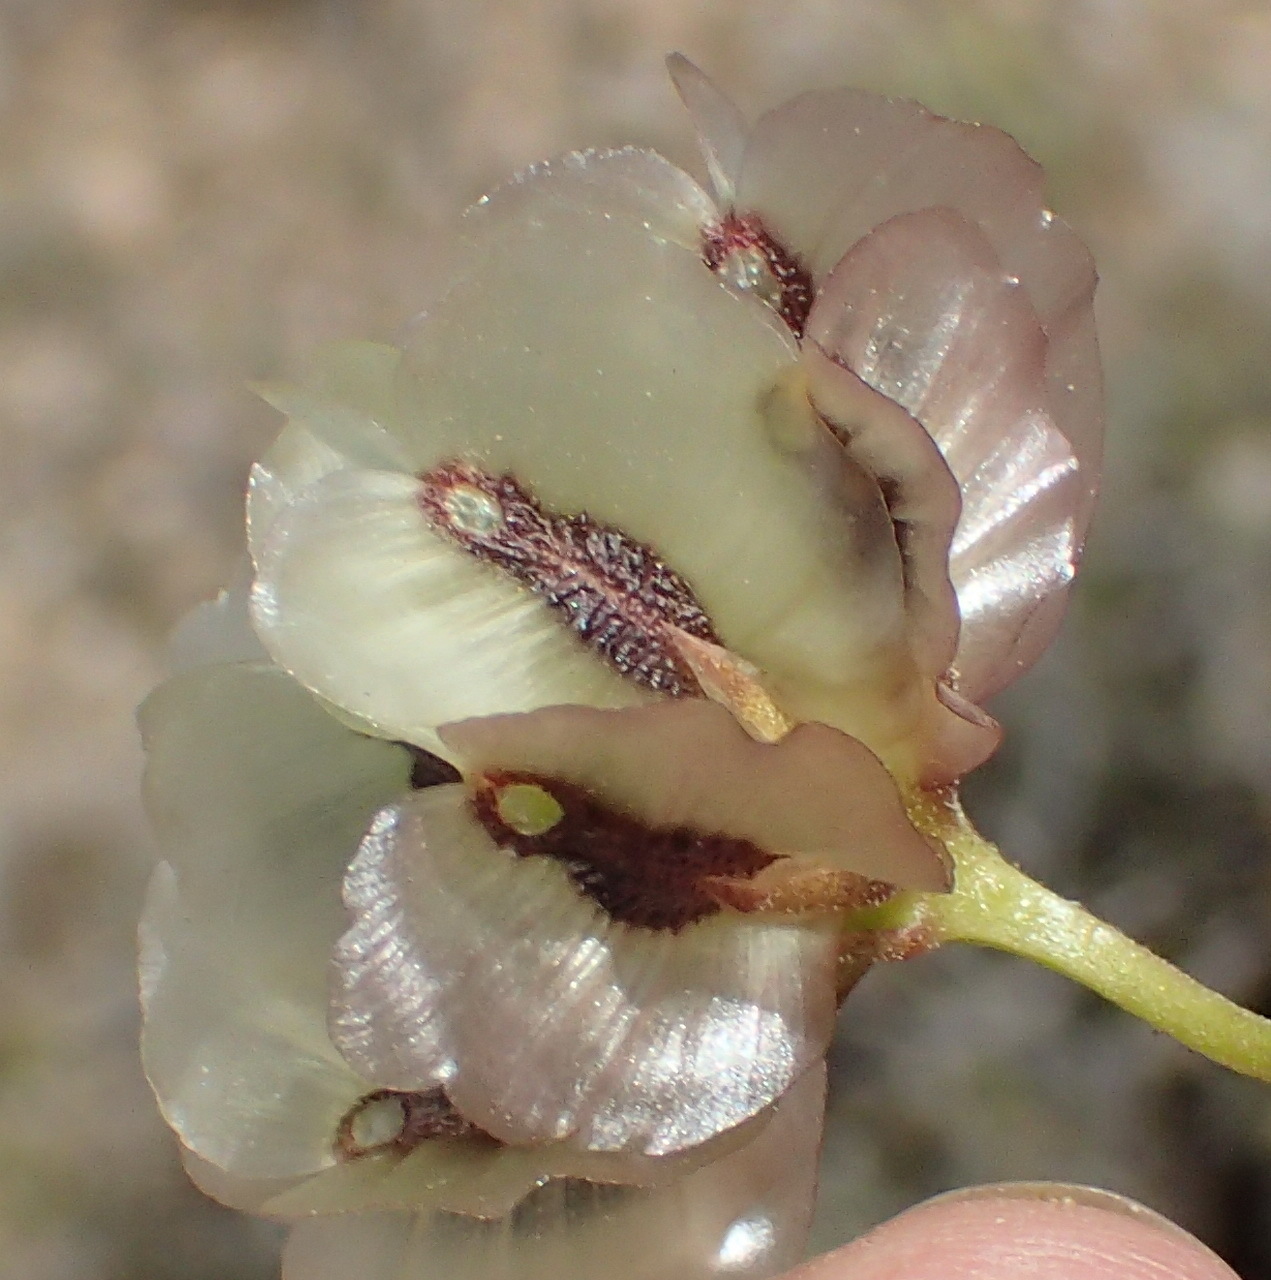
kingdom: Plantae
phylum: Tracheophyta
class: Magnoliopsida
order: Asterales
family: Asteraceae
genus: Osteospermum
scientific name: Osteospermum sinuatum
